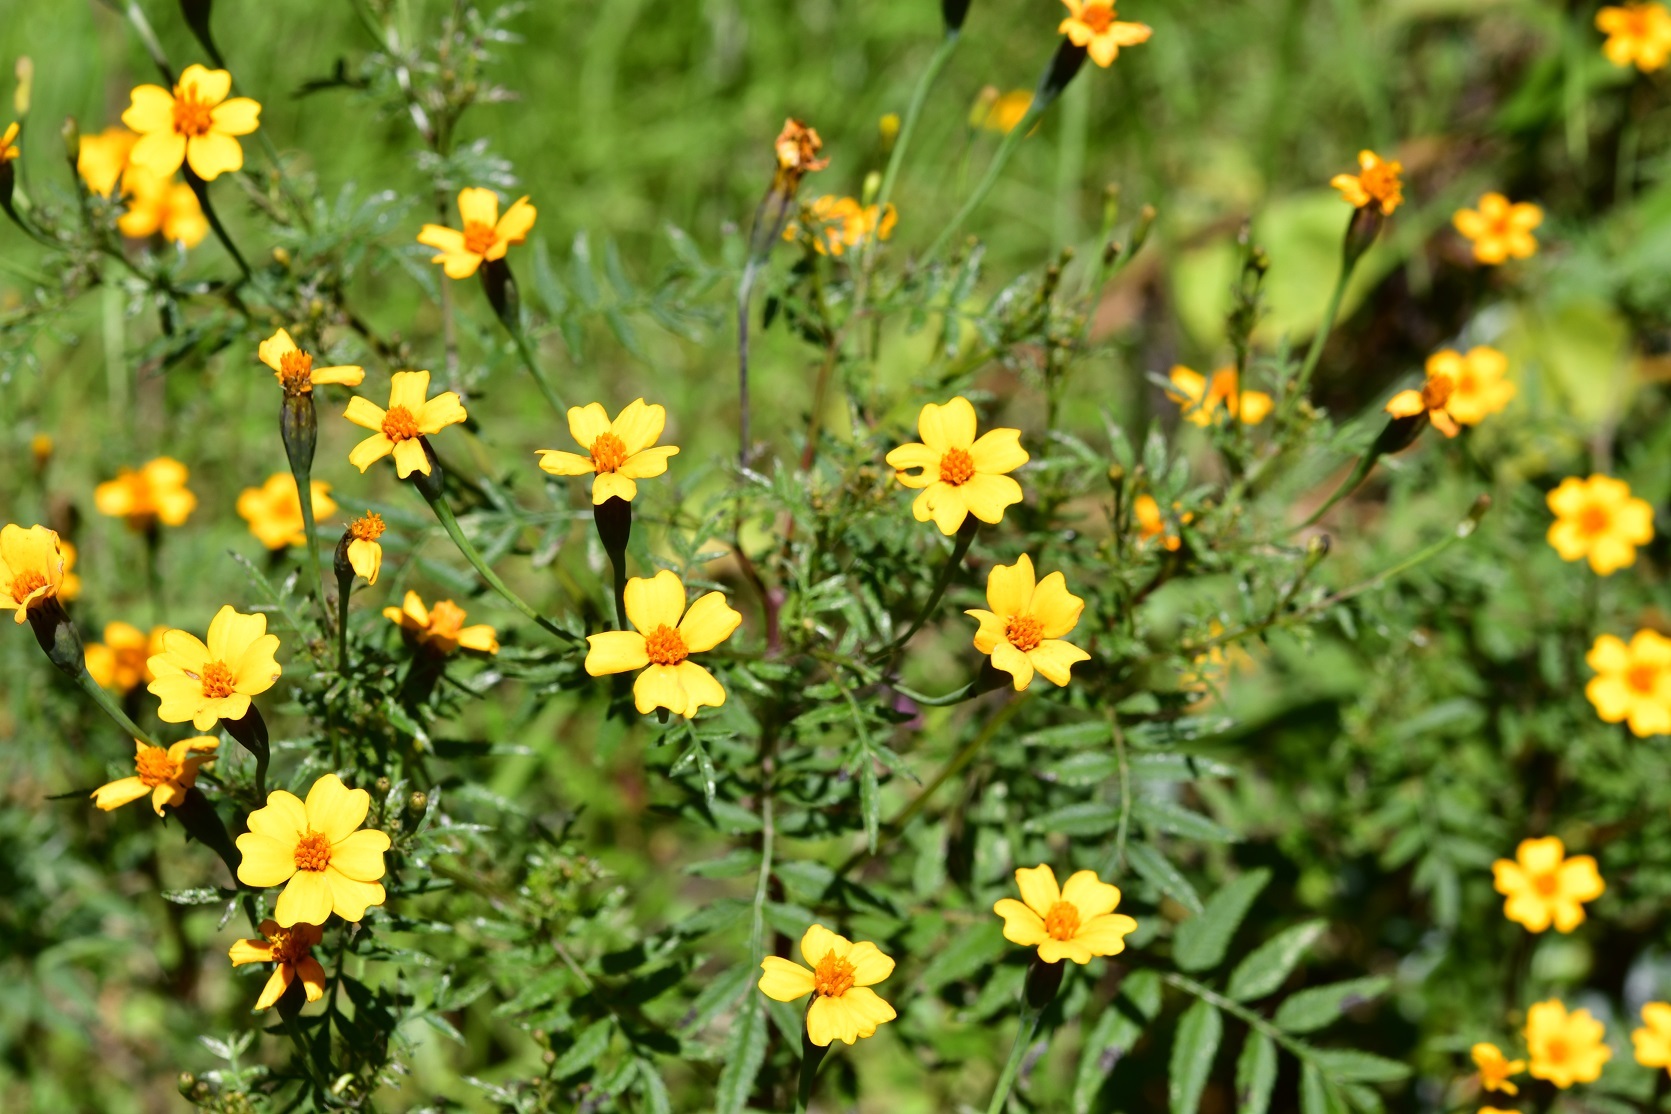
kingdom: Plantae
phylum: Tracheophyta
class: Magnoliopsida
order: Asterales
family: Asteraceae
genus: Tagetes
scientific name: Tagetes tenuifolia
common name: Signet marigold
